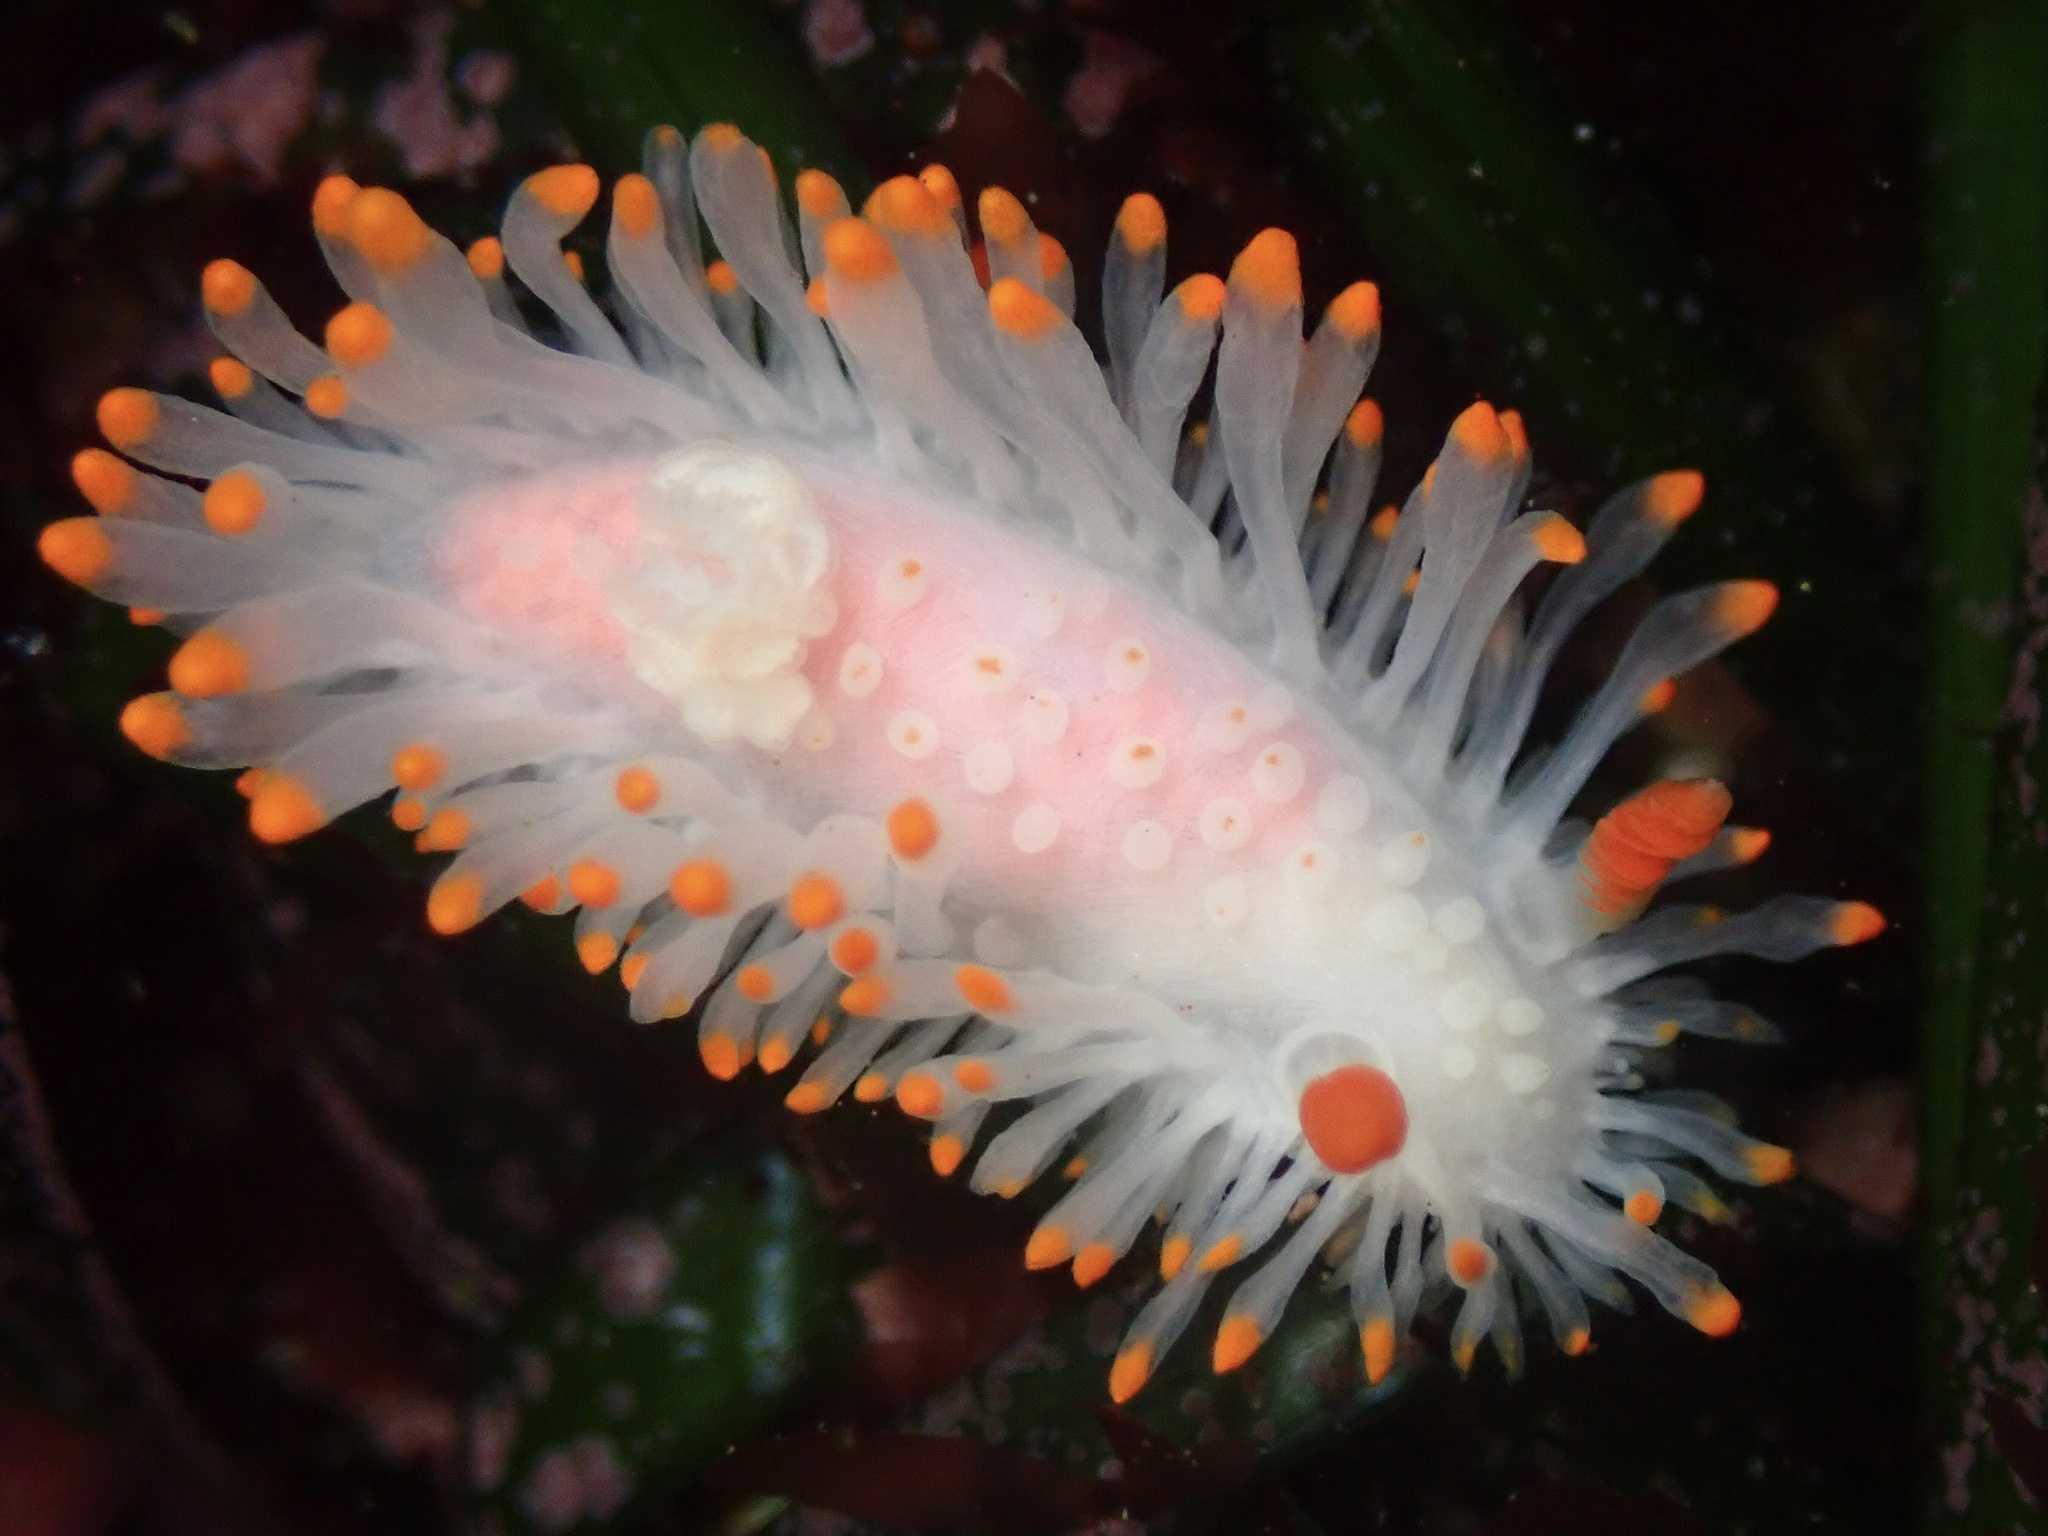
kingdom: Animalia
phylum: Mollusca
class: Gastropoda
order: Nudibranchia
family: Polyceridae
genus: Limacia
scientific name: Limacia cockerelli
